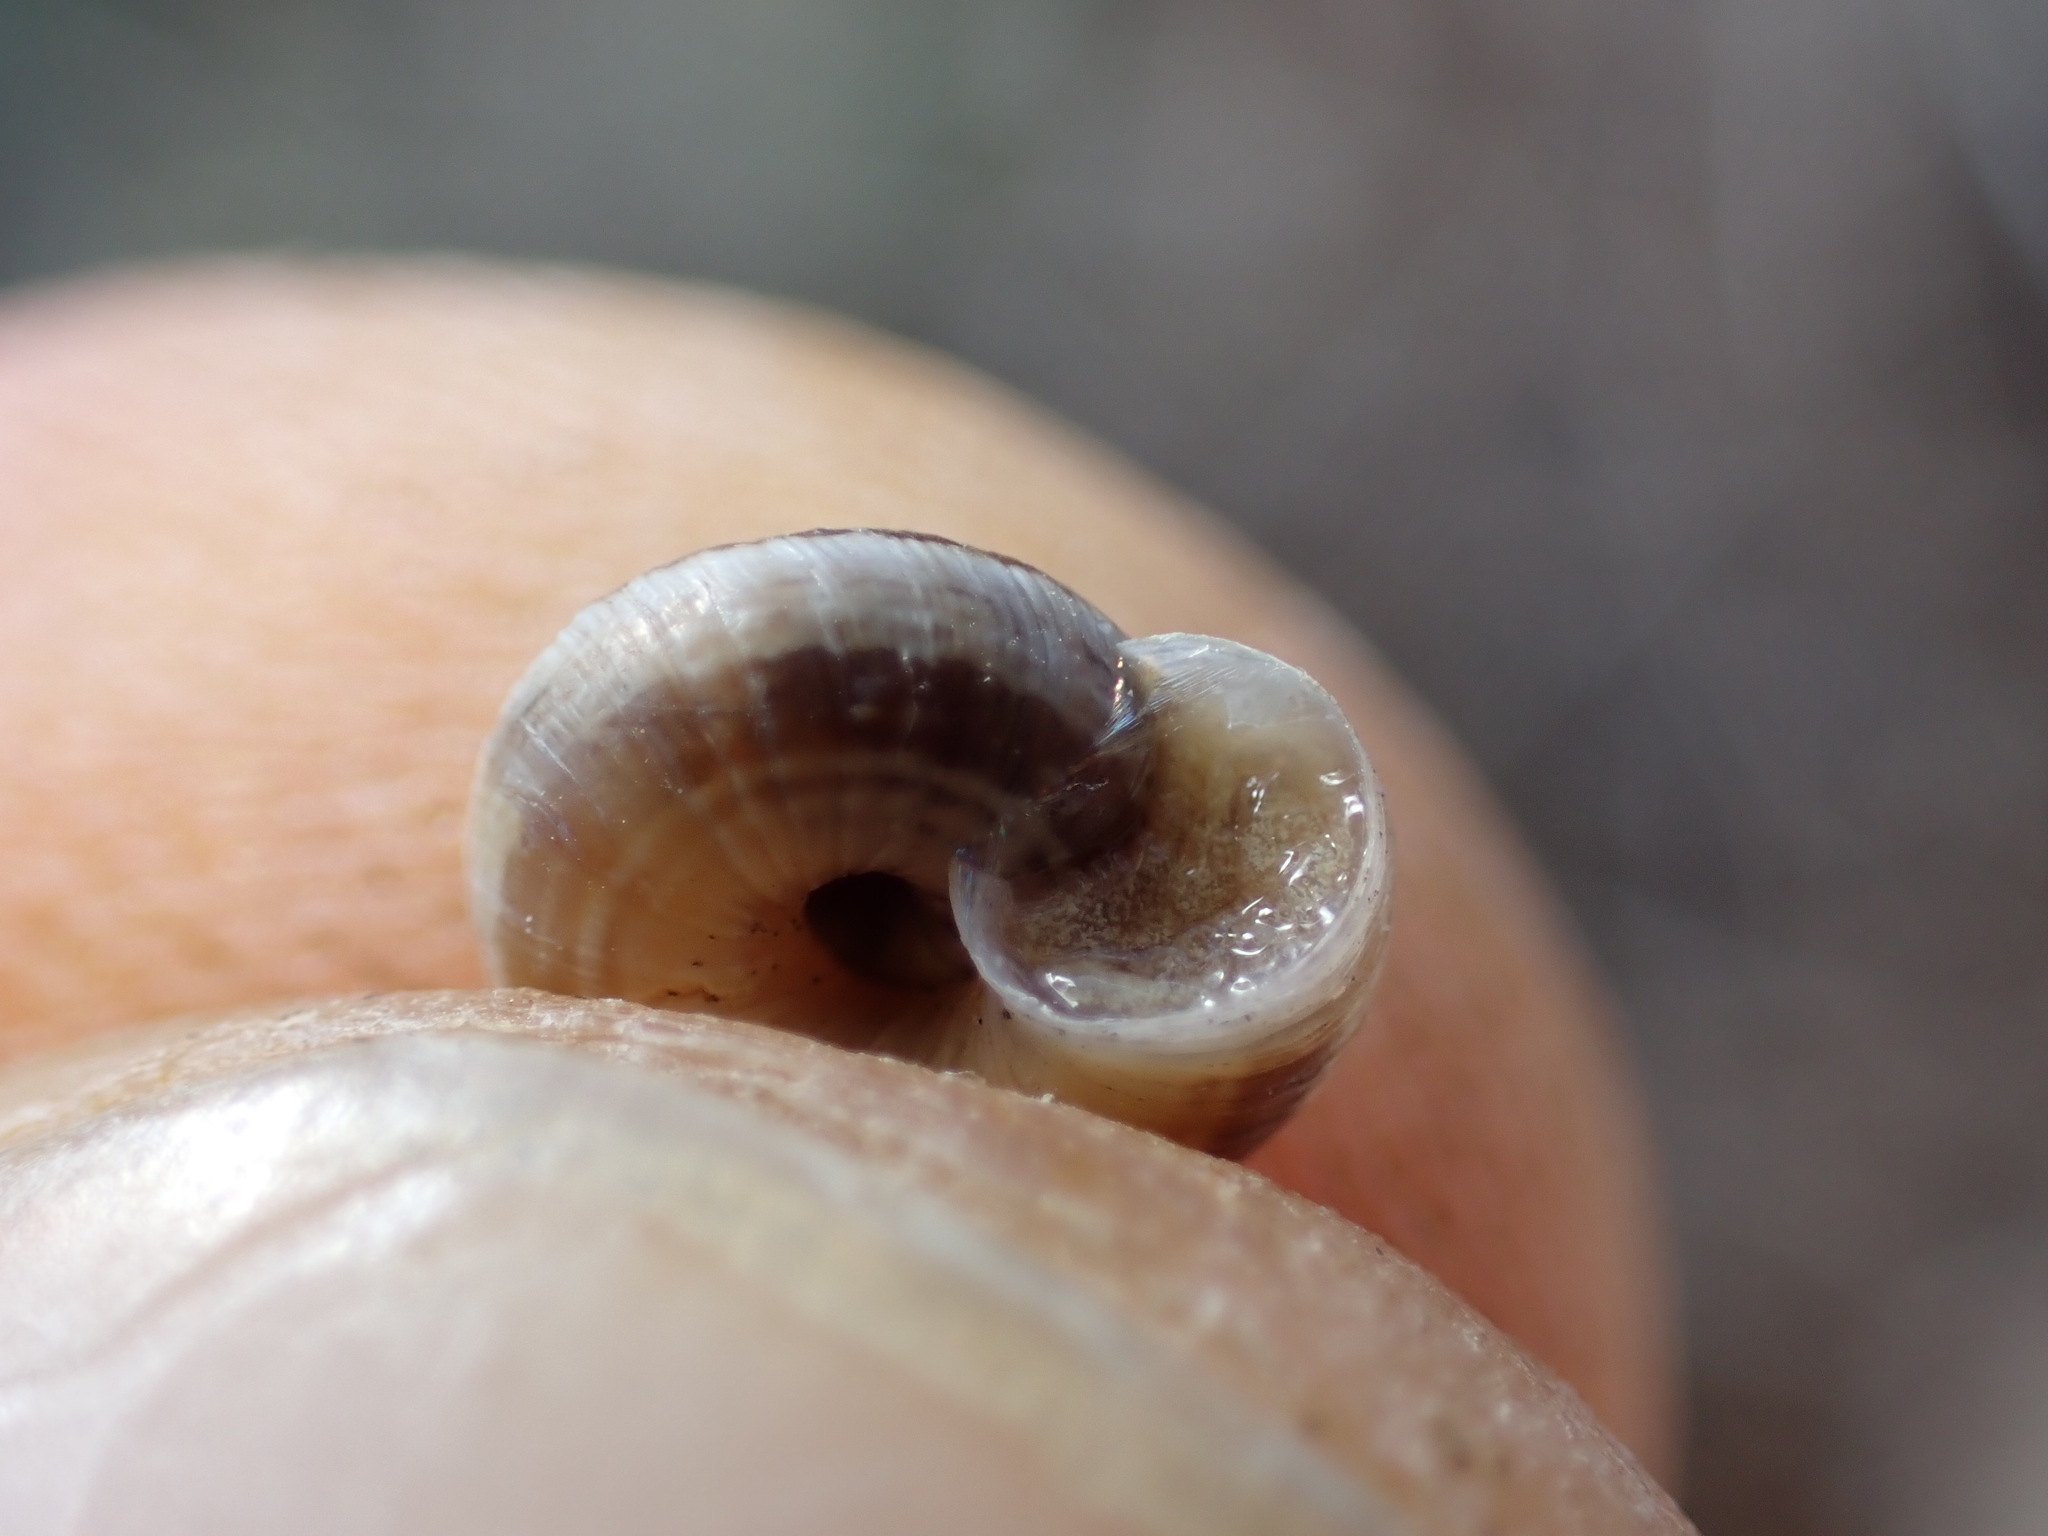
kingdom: Animalia
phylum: Mollusca
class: Gastropoda
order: Stylommatophora
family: Geomitridae
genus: Candidula
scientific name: Candidula unifasciata
